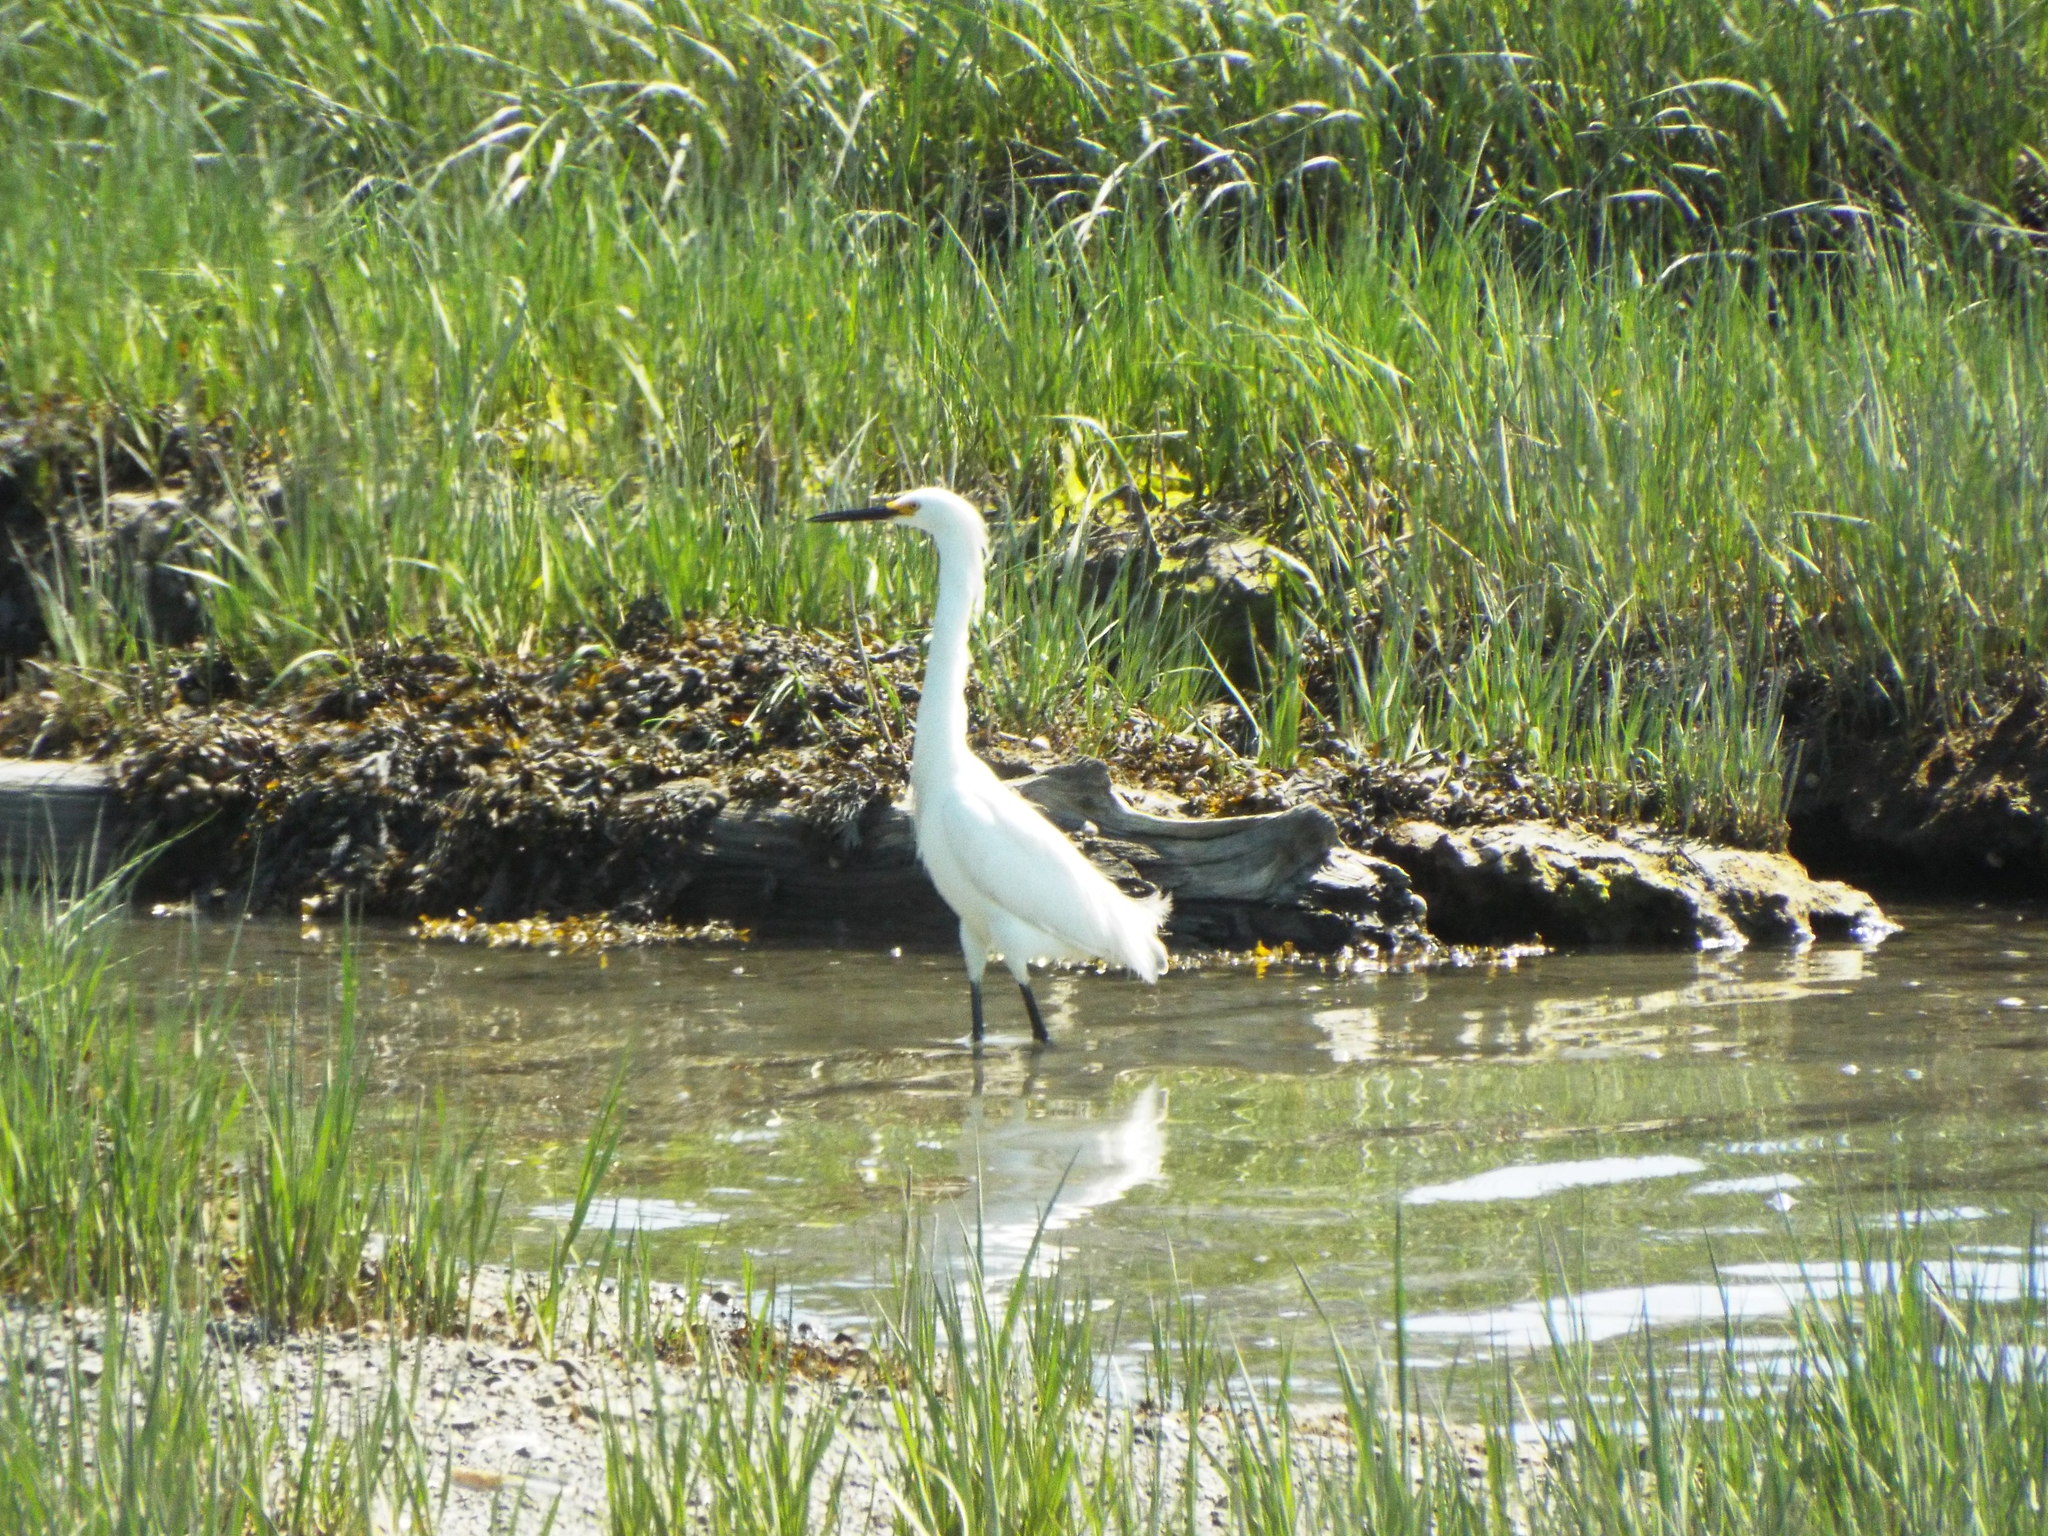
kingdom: Animalia
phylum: Chordata
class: Aves
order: Pelecaniformes
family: Ardeidae
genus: Egretta
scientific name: Egretta thula
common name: Snowy egret
